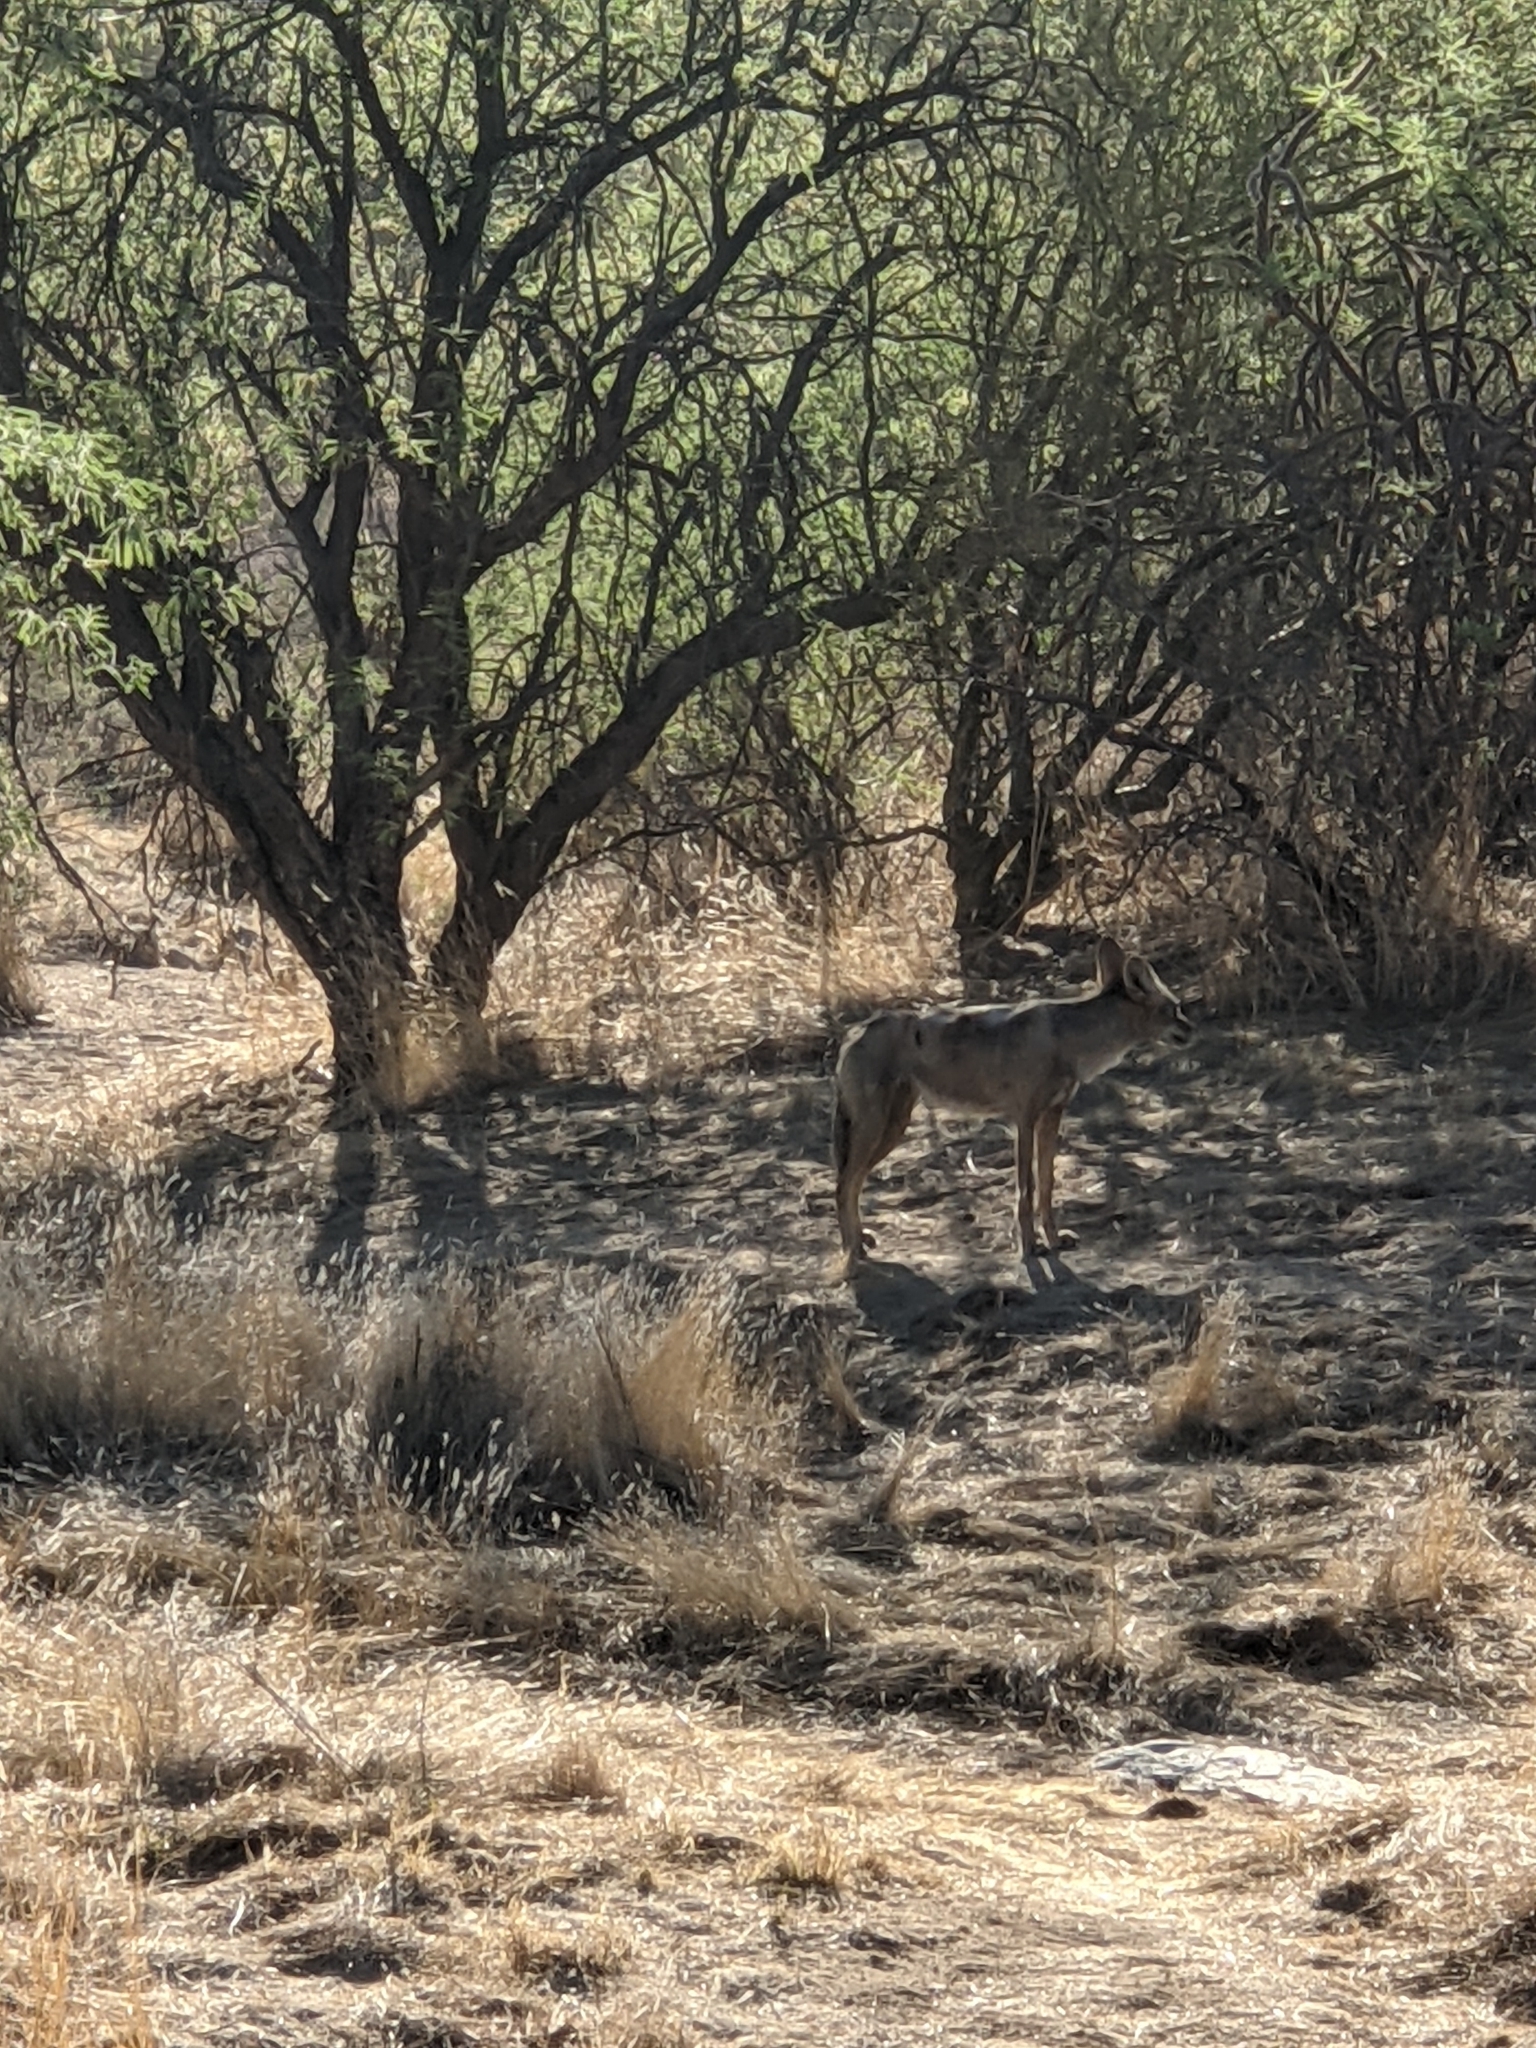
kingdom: Animalia
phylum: Chordata
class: Mammalia
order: Carnivora
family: Canidae
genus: Canis
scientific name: Canis latrans
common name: Coyote
